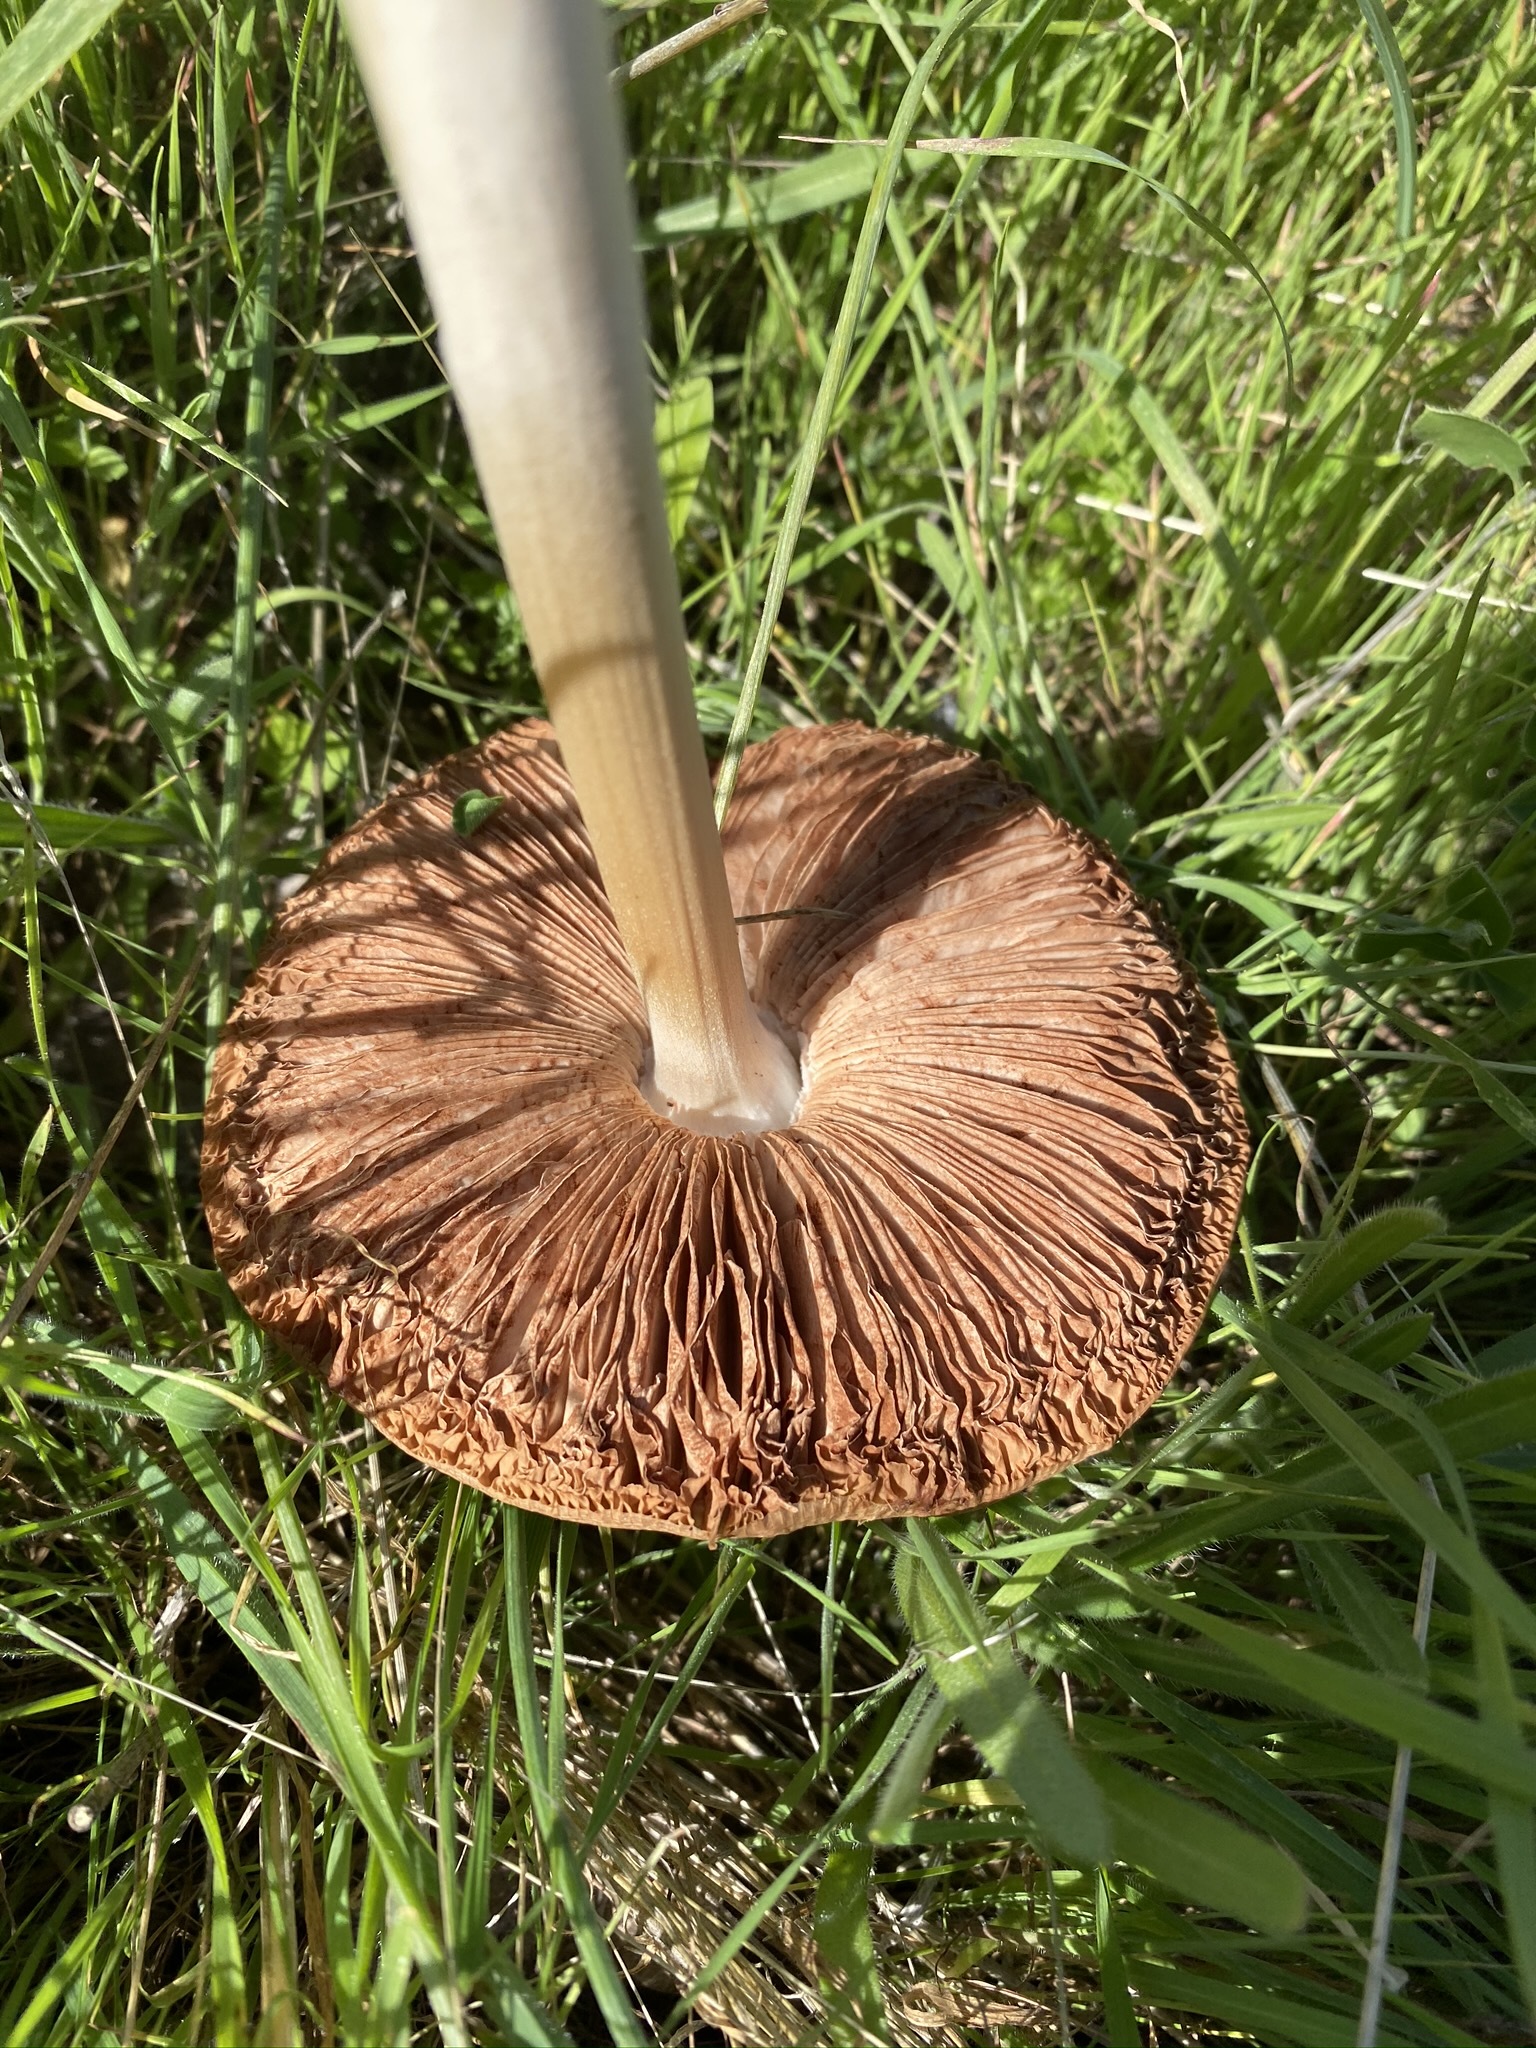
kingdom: Fungi
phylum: Basidiomycota
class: Agaricomycetes
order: Agaricales
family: Pluteaceae
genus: Volvopluteus
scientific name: Volvopluteus gloiocephalus
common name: Stubble rosegill
